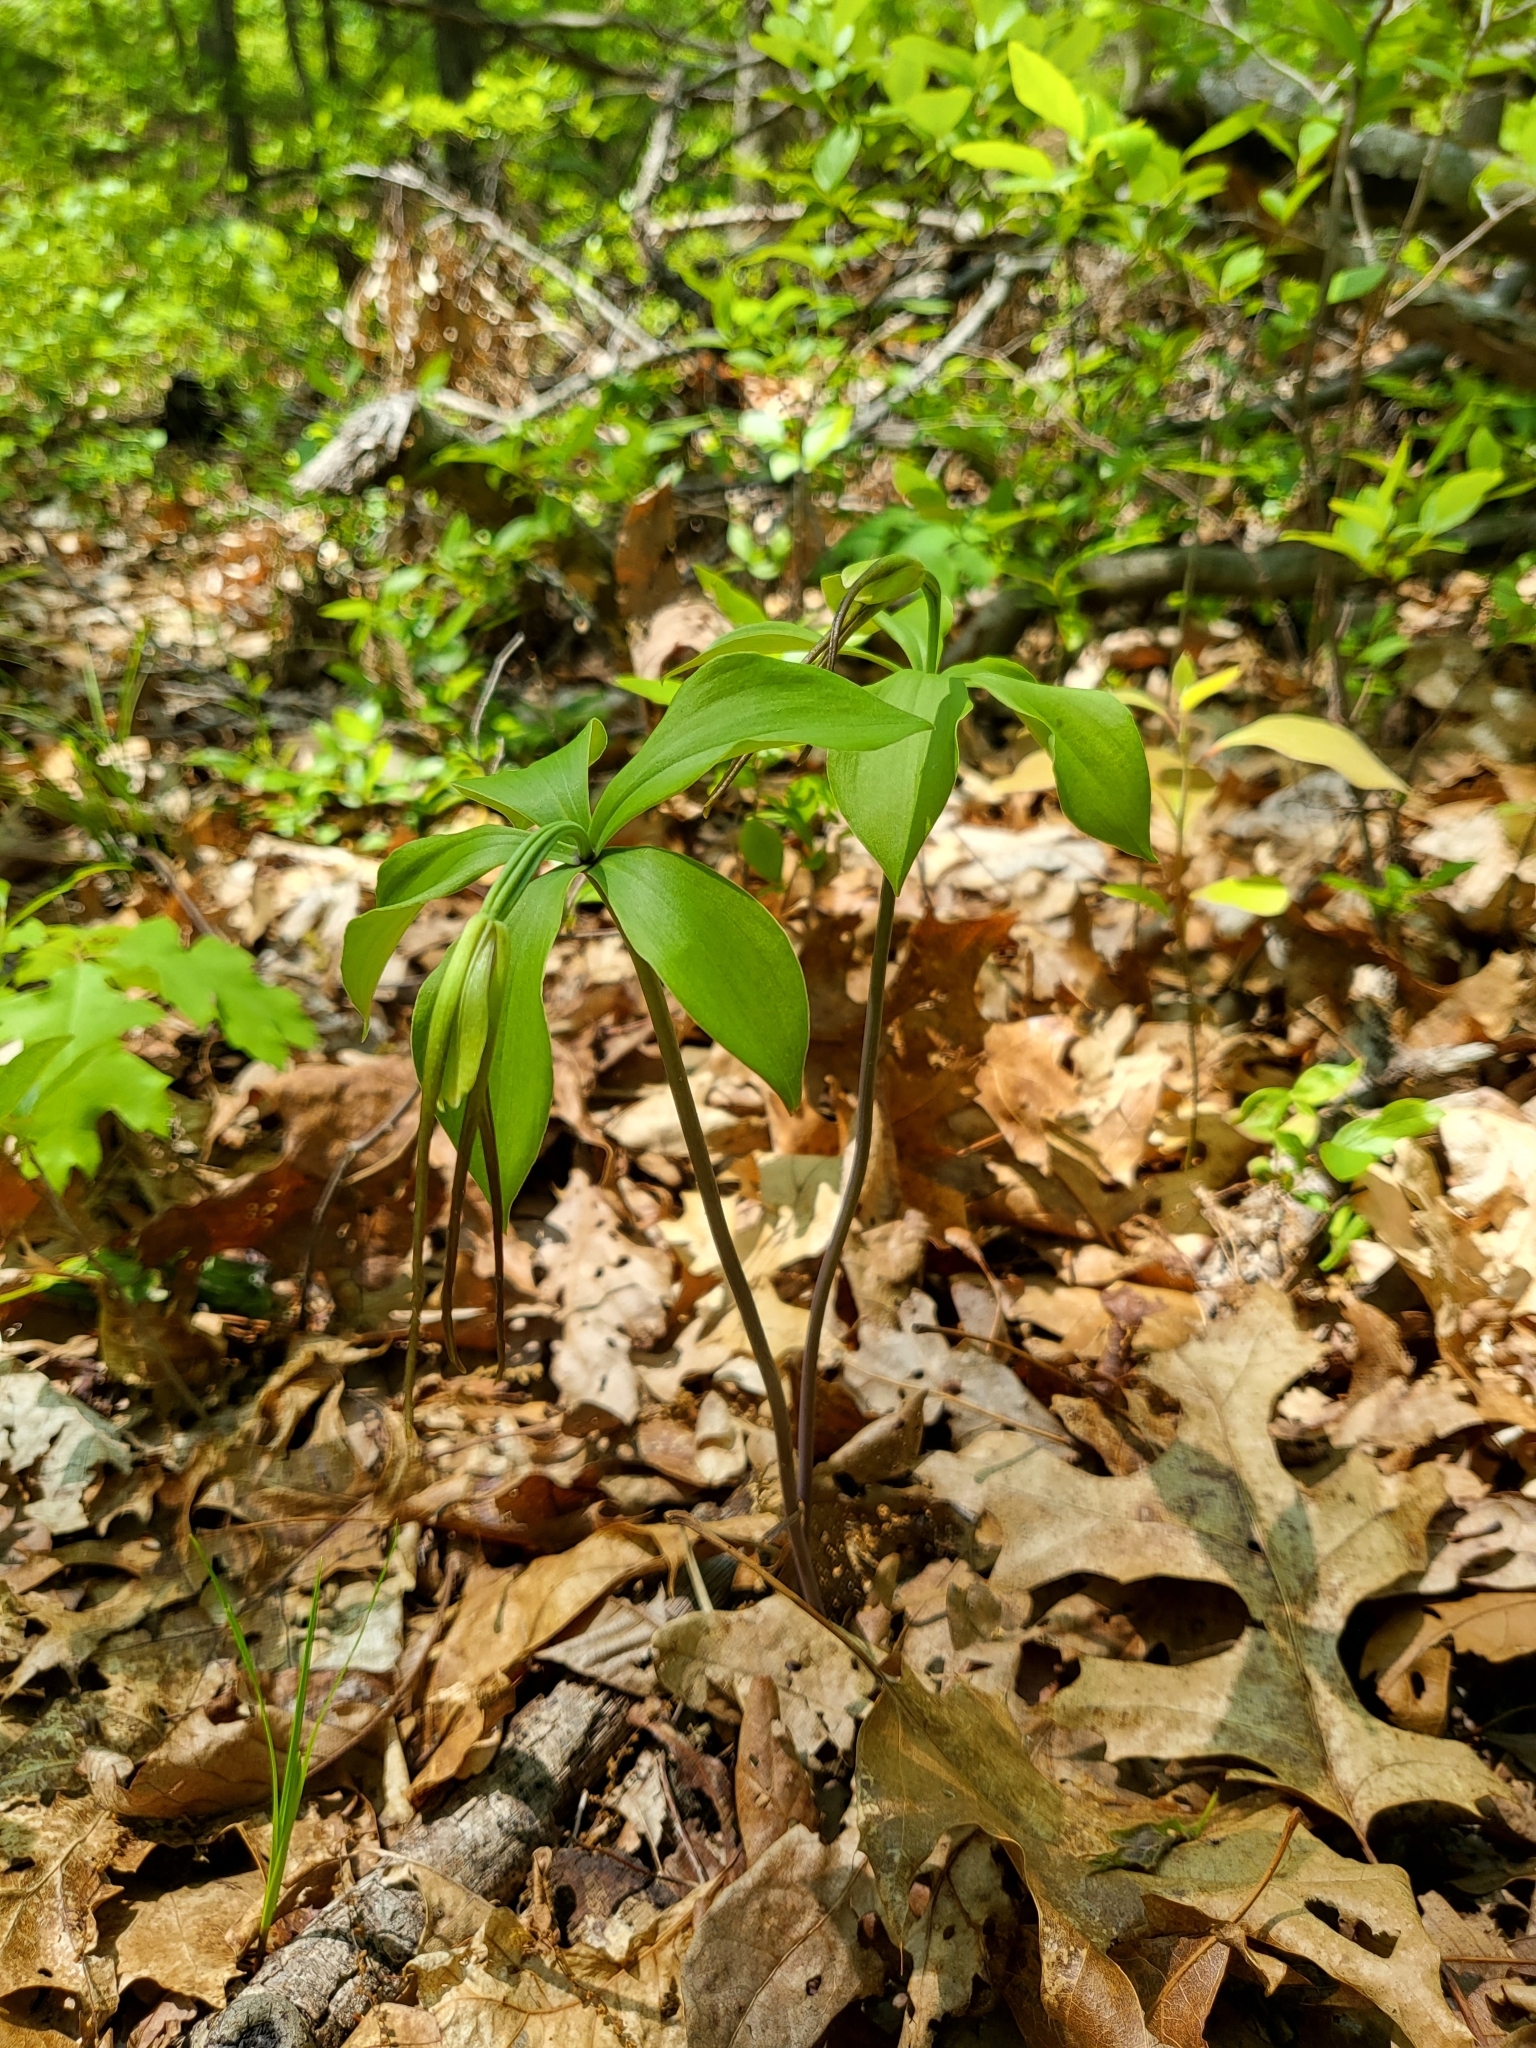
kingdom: Plantae
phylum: Tracheophyta
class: Liliopsida
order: Asparagales
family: Orchidaceae
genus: Isotria
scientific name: Isotria verticillata
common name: Large whorled pogonia
